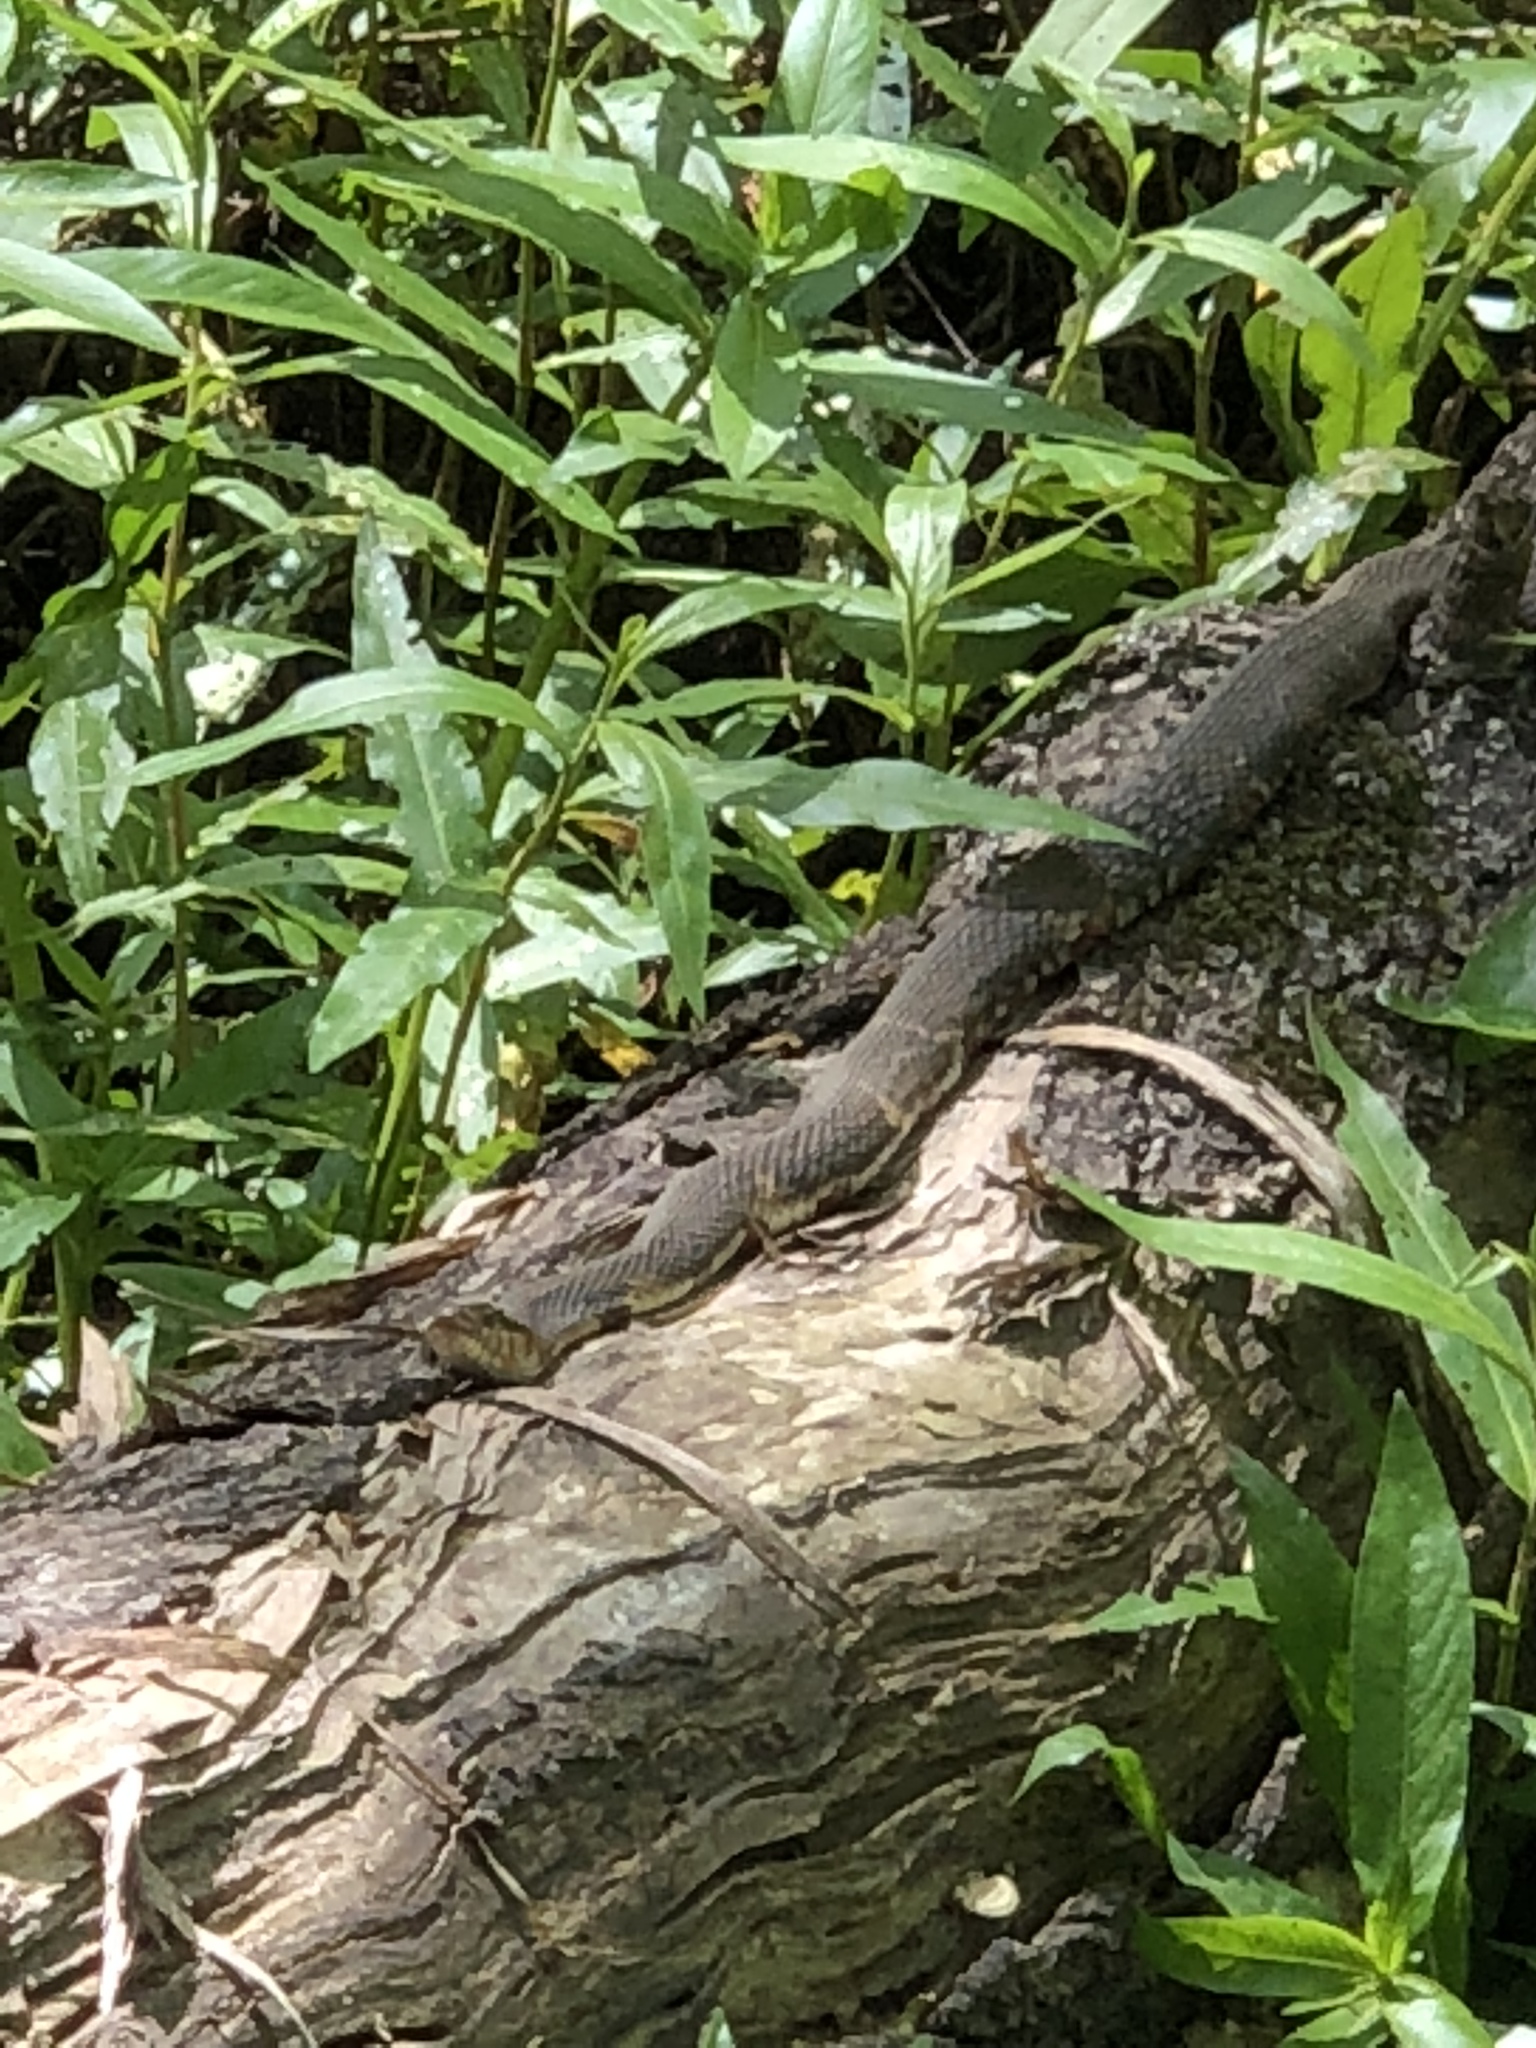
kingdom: Animalia
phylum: Chordata
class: Squamata
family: Colubridae
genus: Nerodia
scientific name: Nerodia fasciata
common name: Southern water snake
